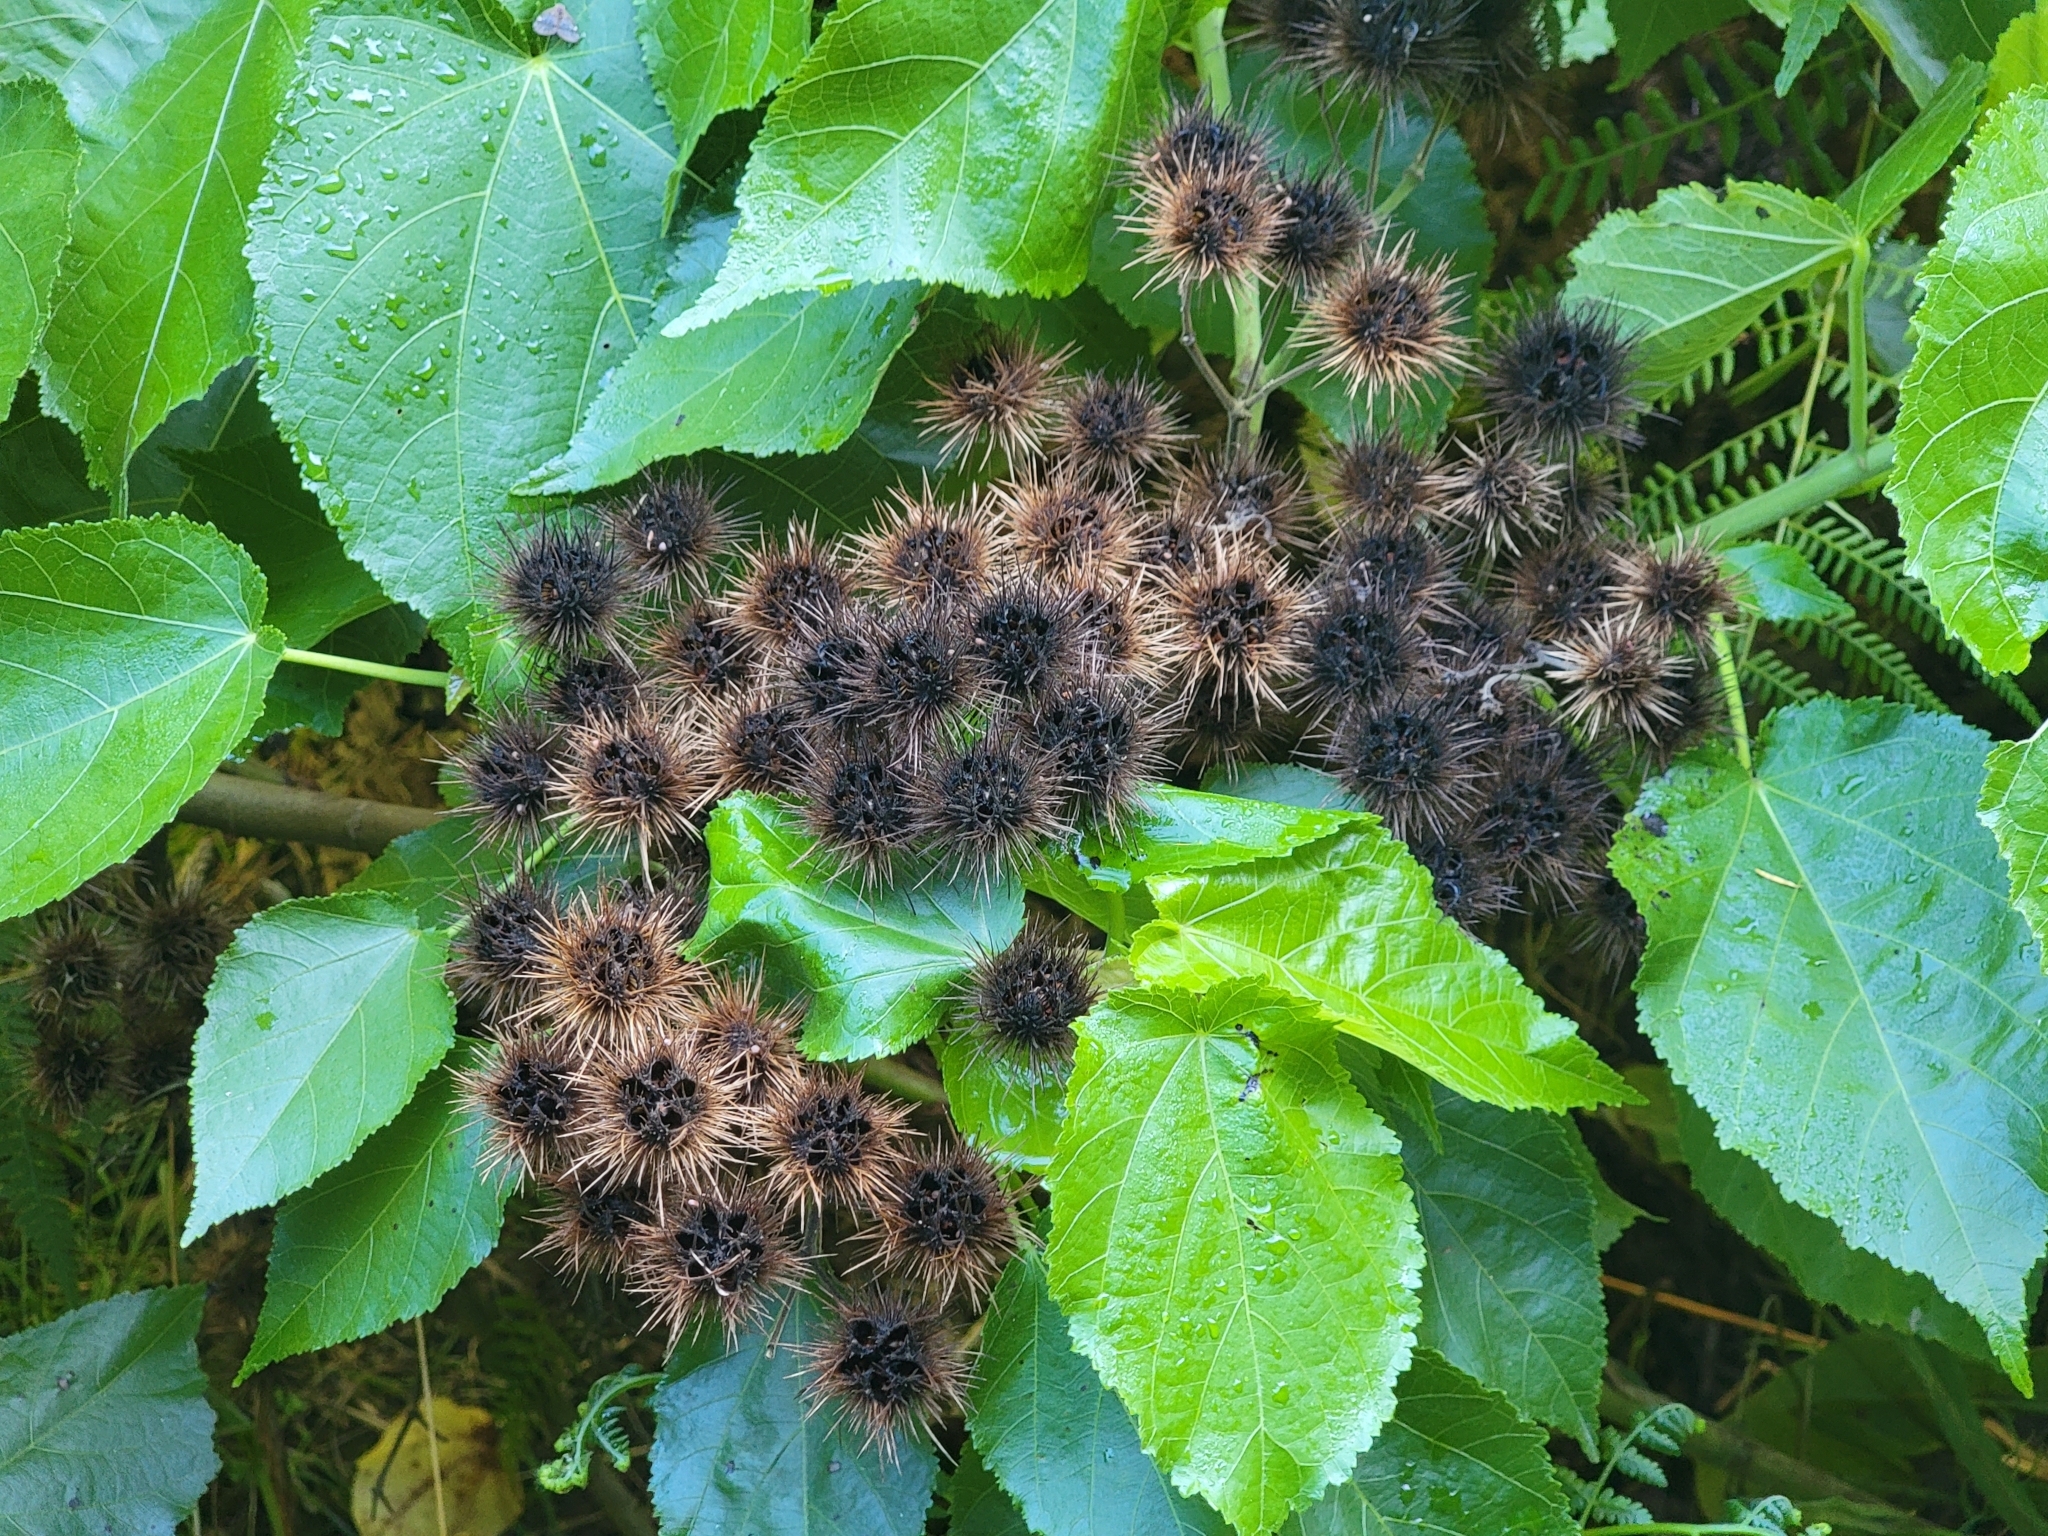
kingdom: Plantae
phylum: Tracheophyta
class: Magnoliopsida
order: Malvales
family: Malvaceae
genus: Entelea
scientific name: Entelea arborescens
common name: New zealand-mulberry
